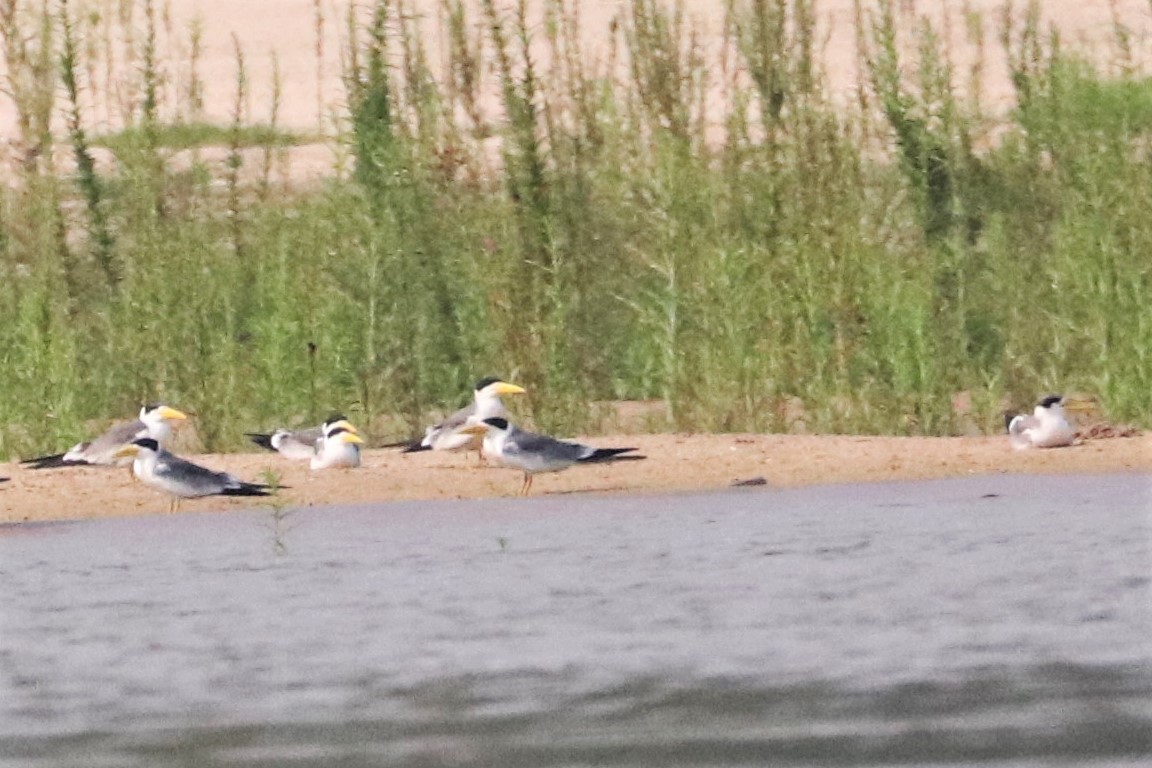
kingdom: Animalia
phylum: Chordata
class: Aves
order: Charadriiformes
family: Laridae
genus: Phaetusa
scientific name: Phaetusa simplex
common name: Large-billed tern
